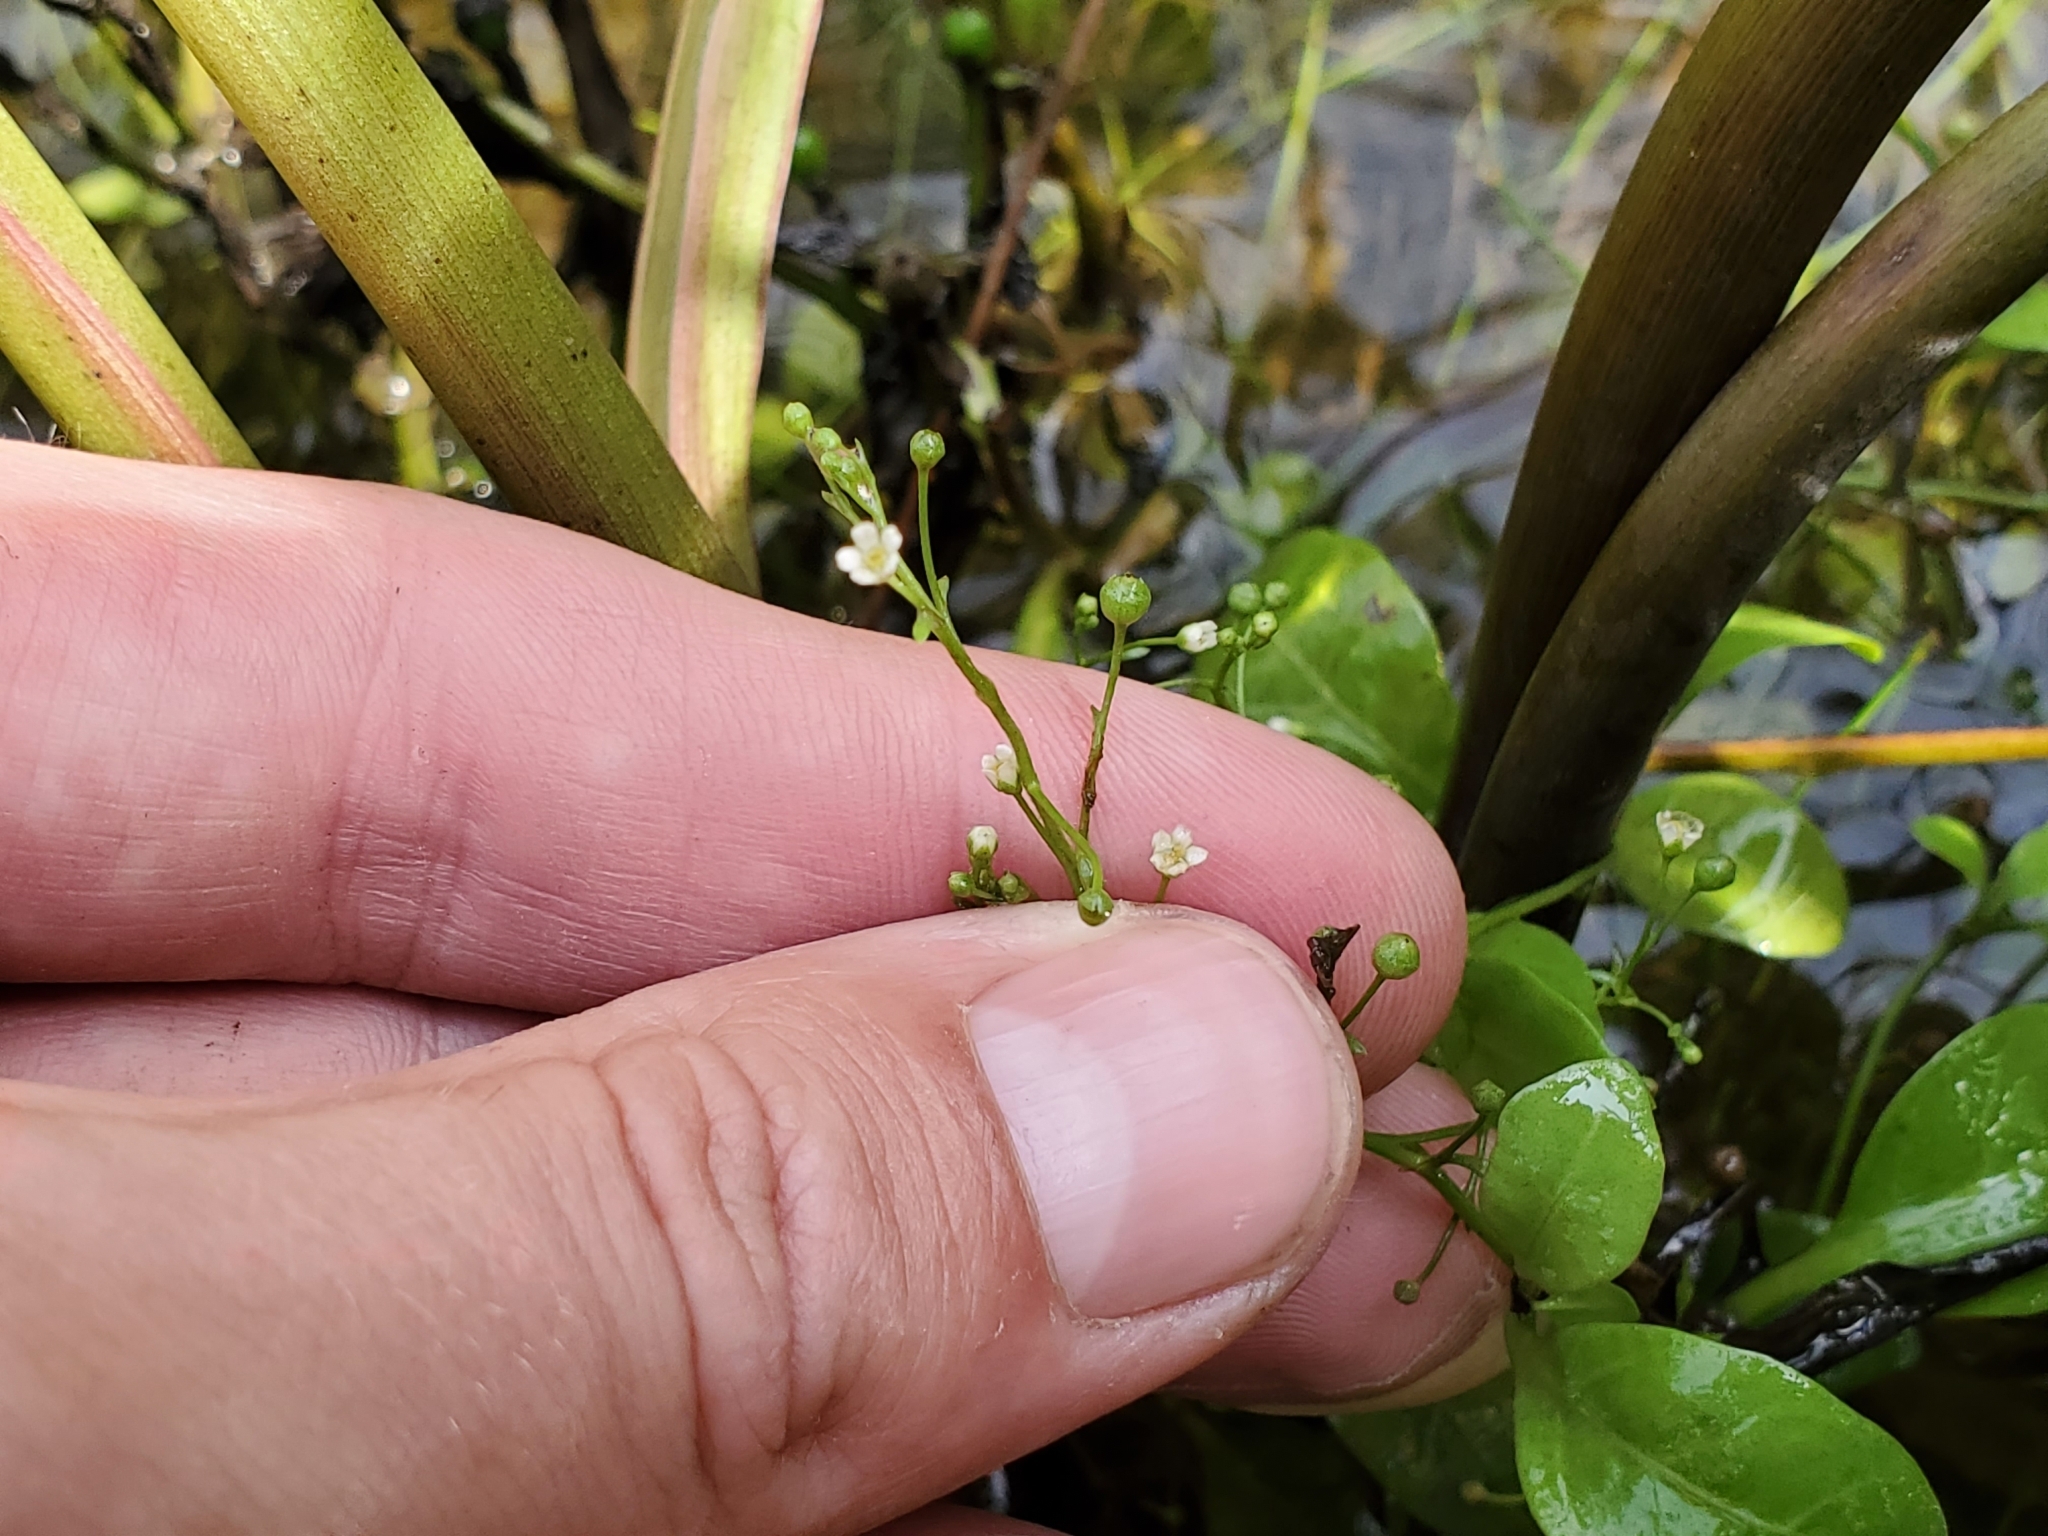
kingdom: Plantae
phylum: Tracheophyta
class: Magnoliopsida
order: Ericales
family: Primulaceae
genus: Samolus
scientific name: Samolus parviflorus
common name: False water pimpernel
